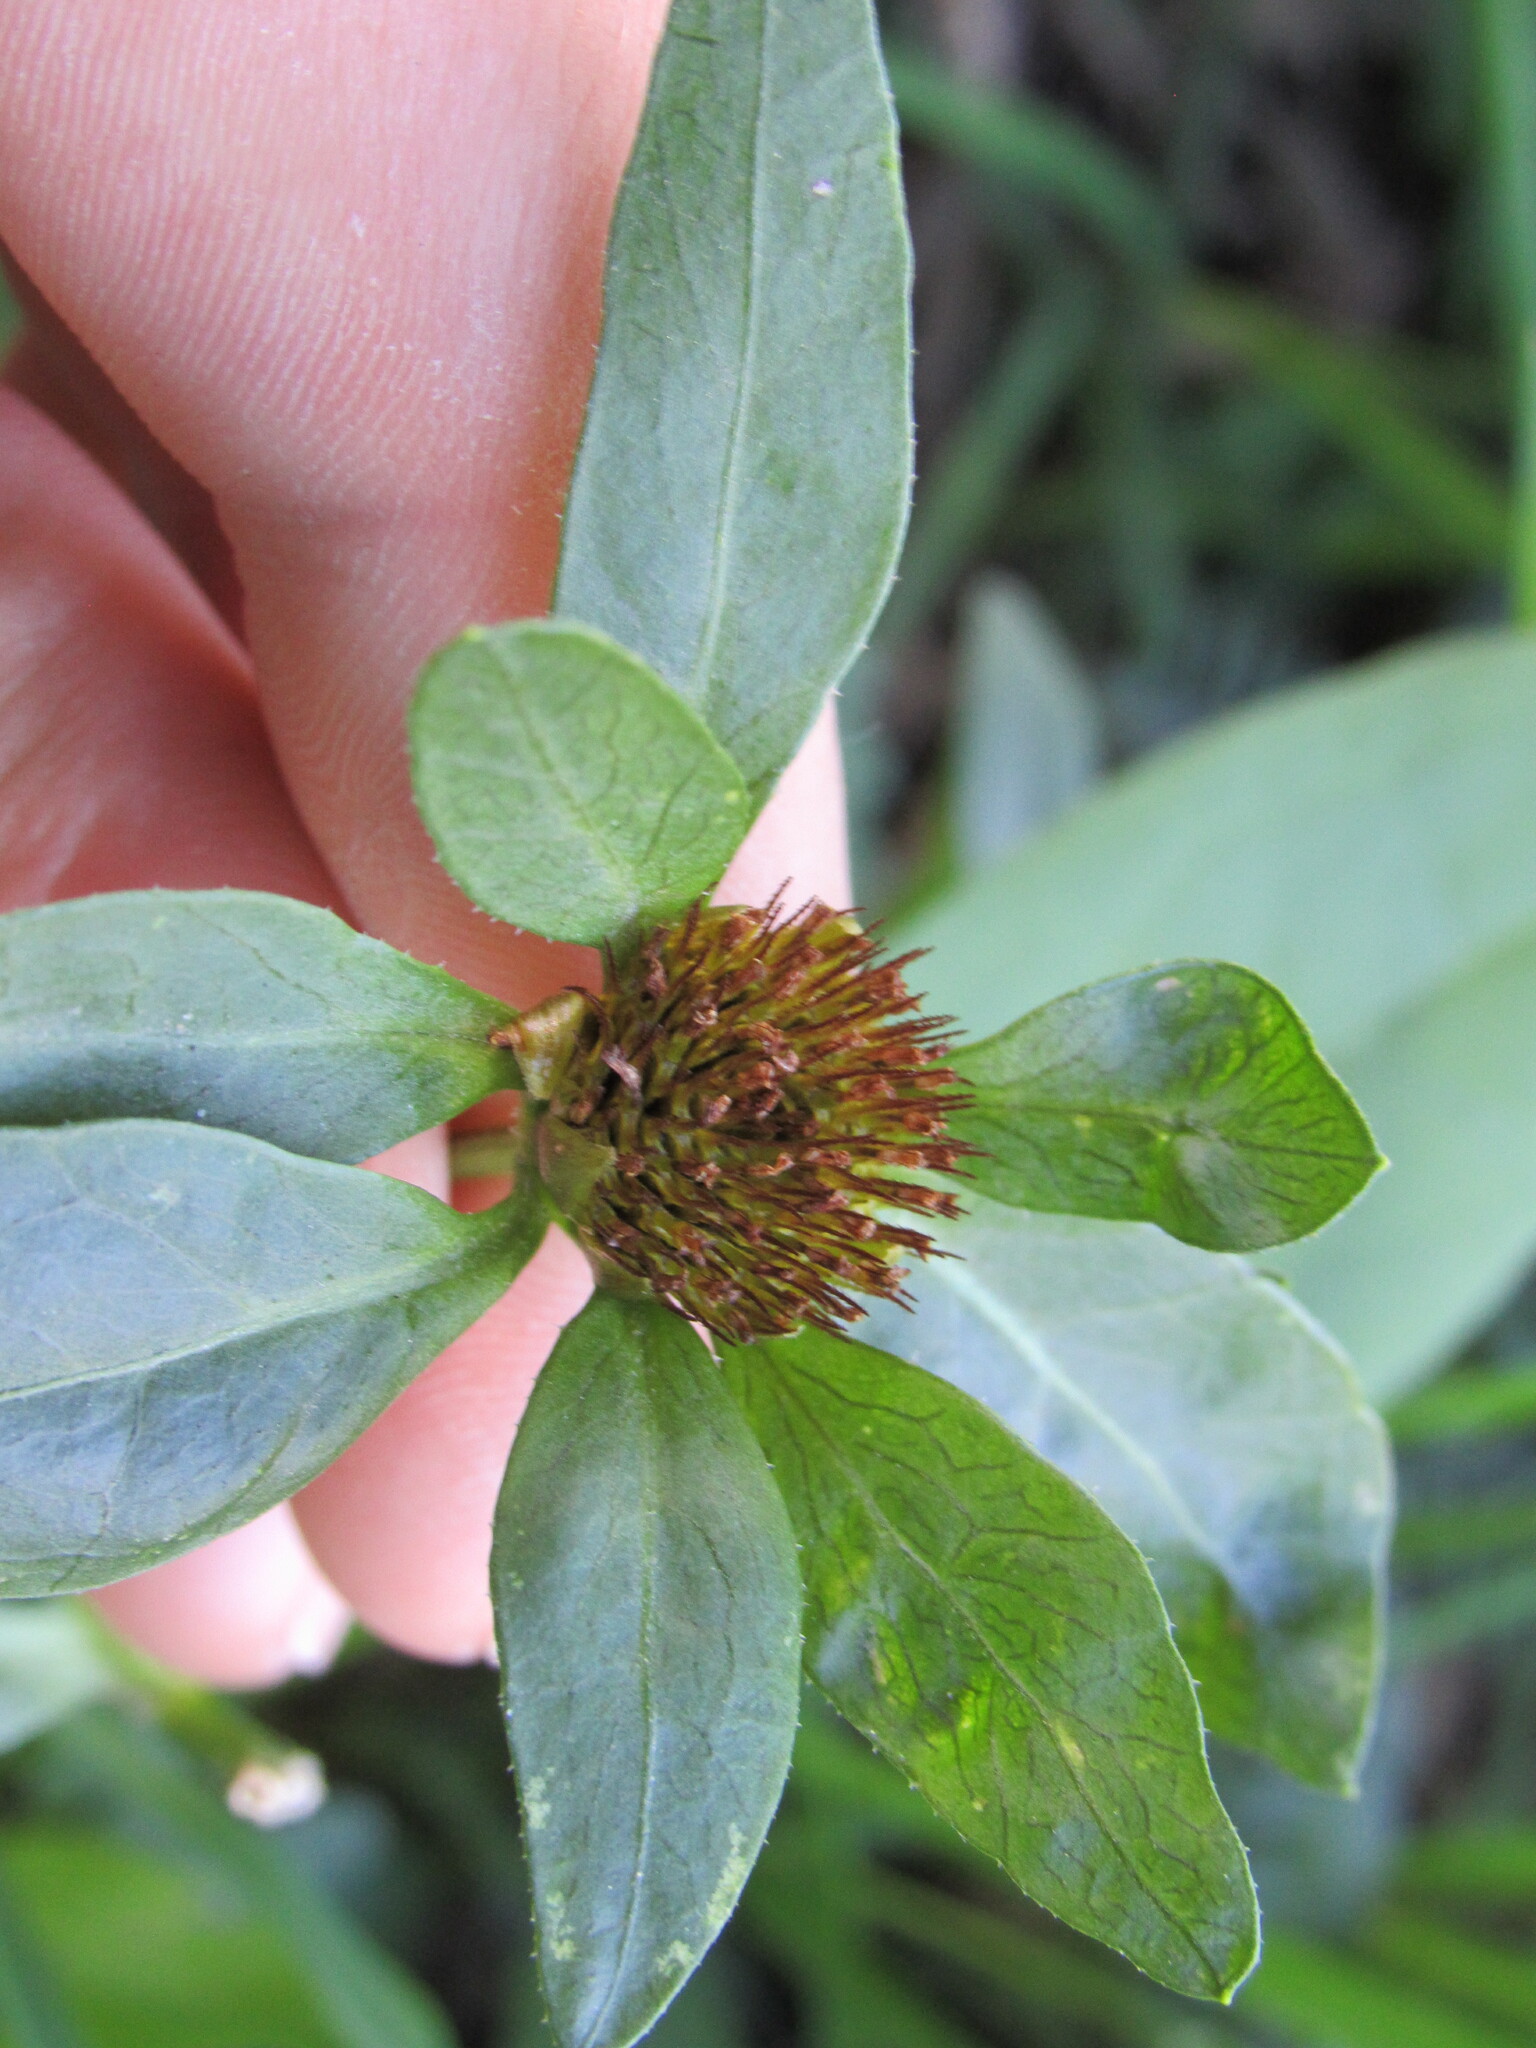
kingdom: Plantae
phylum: Tracheophyta
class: Magnoliopsida
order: Asterales
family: Asteraceae
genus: Bidens
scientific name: Bidens tripartita
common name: Trifid bur-marigold
